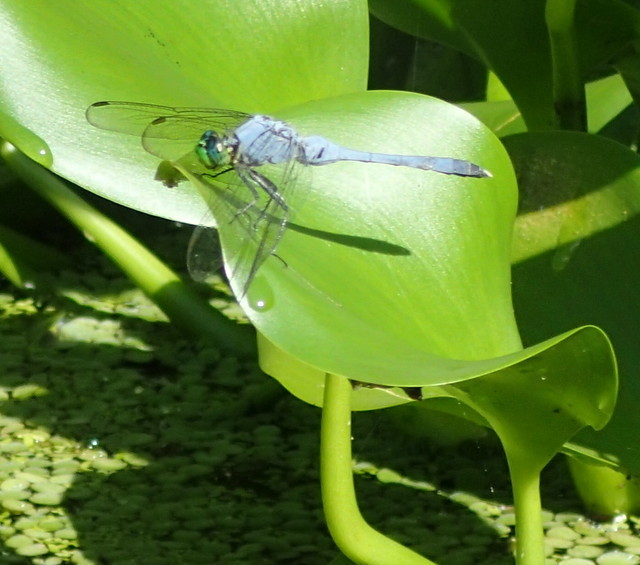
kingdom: Animalia
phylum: Arthropoda
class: Insecta
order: Odonata
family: Libellulidae
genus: Erythemis
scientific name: Erythemis simplicicollis
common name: Eastern pondhawk
